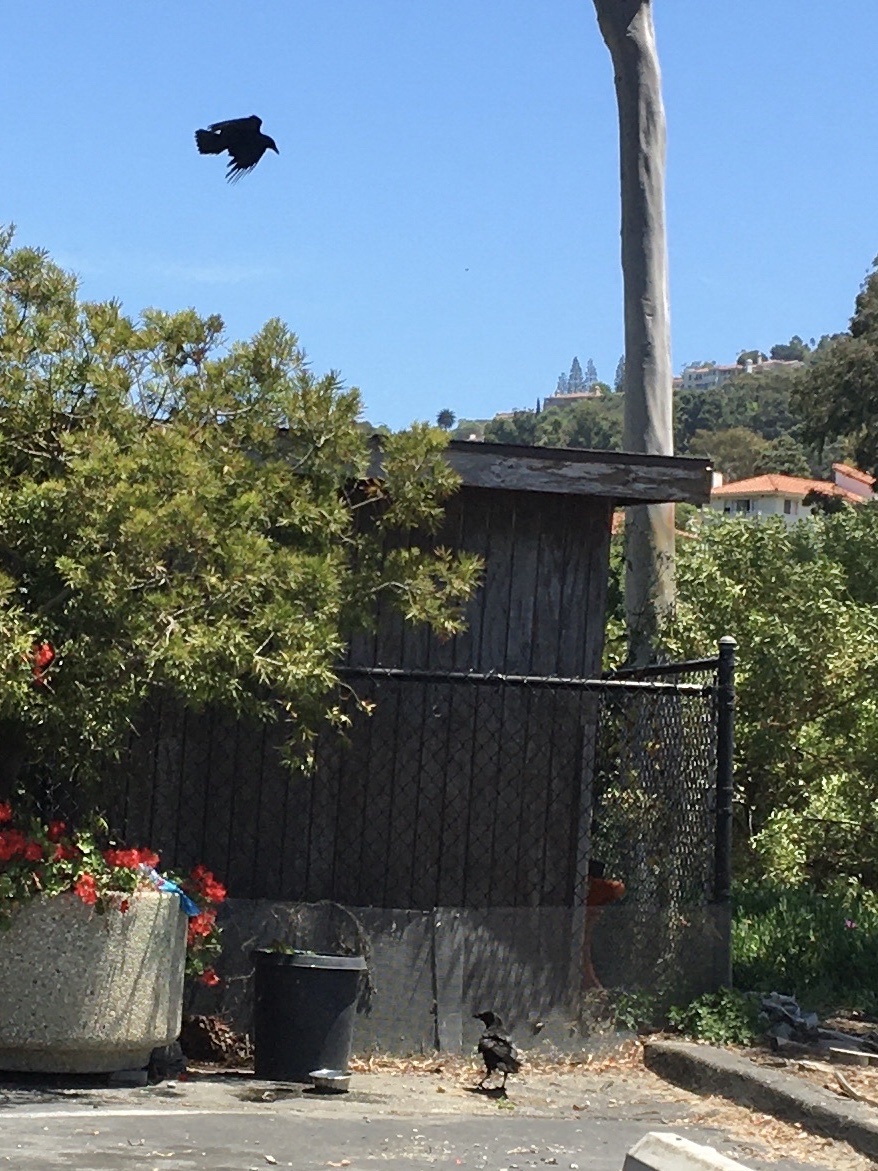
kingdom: Animalia
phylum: Chordata
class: Aves
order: Passeriformes
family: Corvidae
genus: Corvus
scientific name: Corvus brachyrhynchos
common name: American crow
